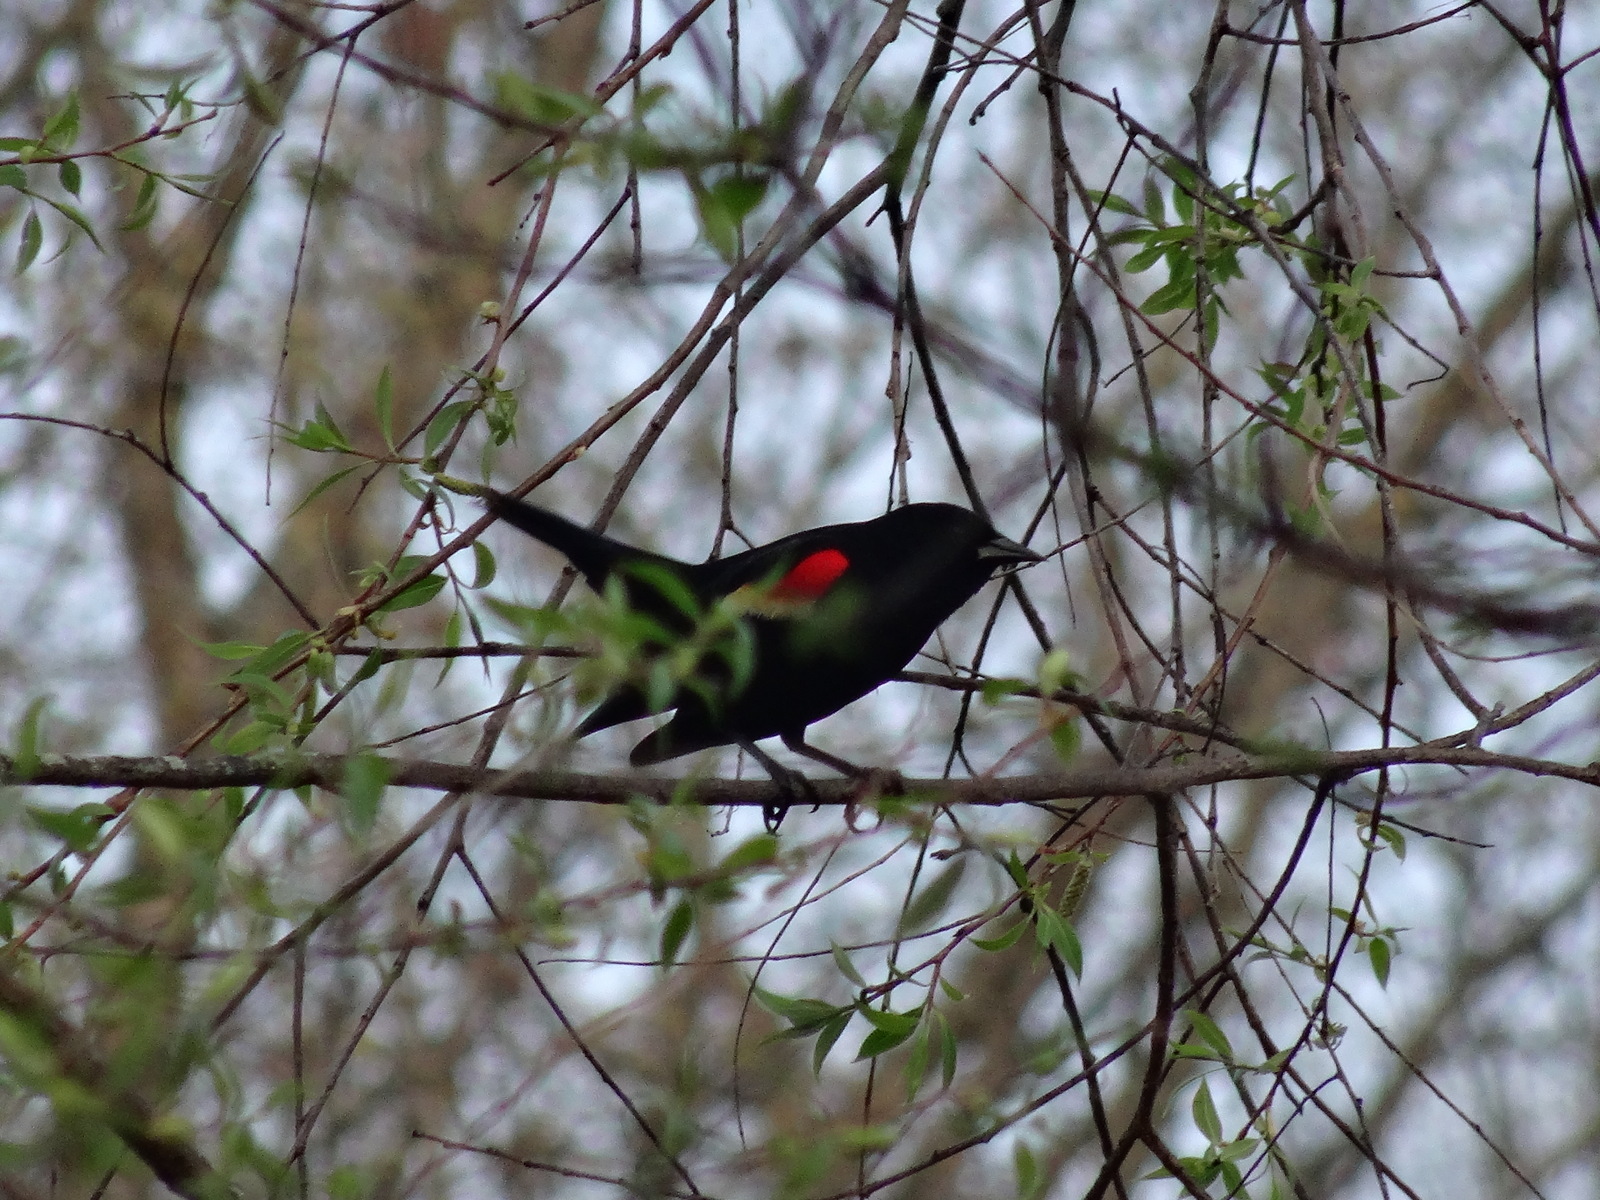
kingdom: Animalia
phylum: Chordata
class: Aves
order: Passeriformes
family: Icteridae
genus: Agelaius
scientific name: Agelaius phoeniceus
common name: Red-winged blackbird
